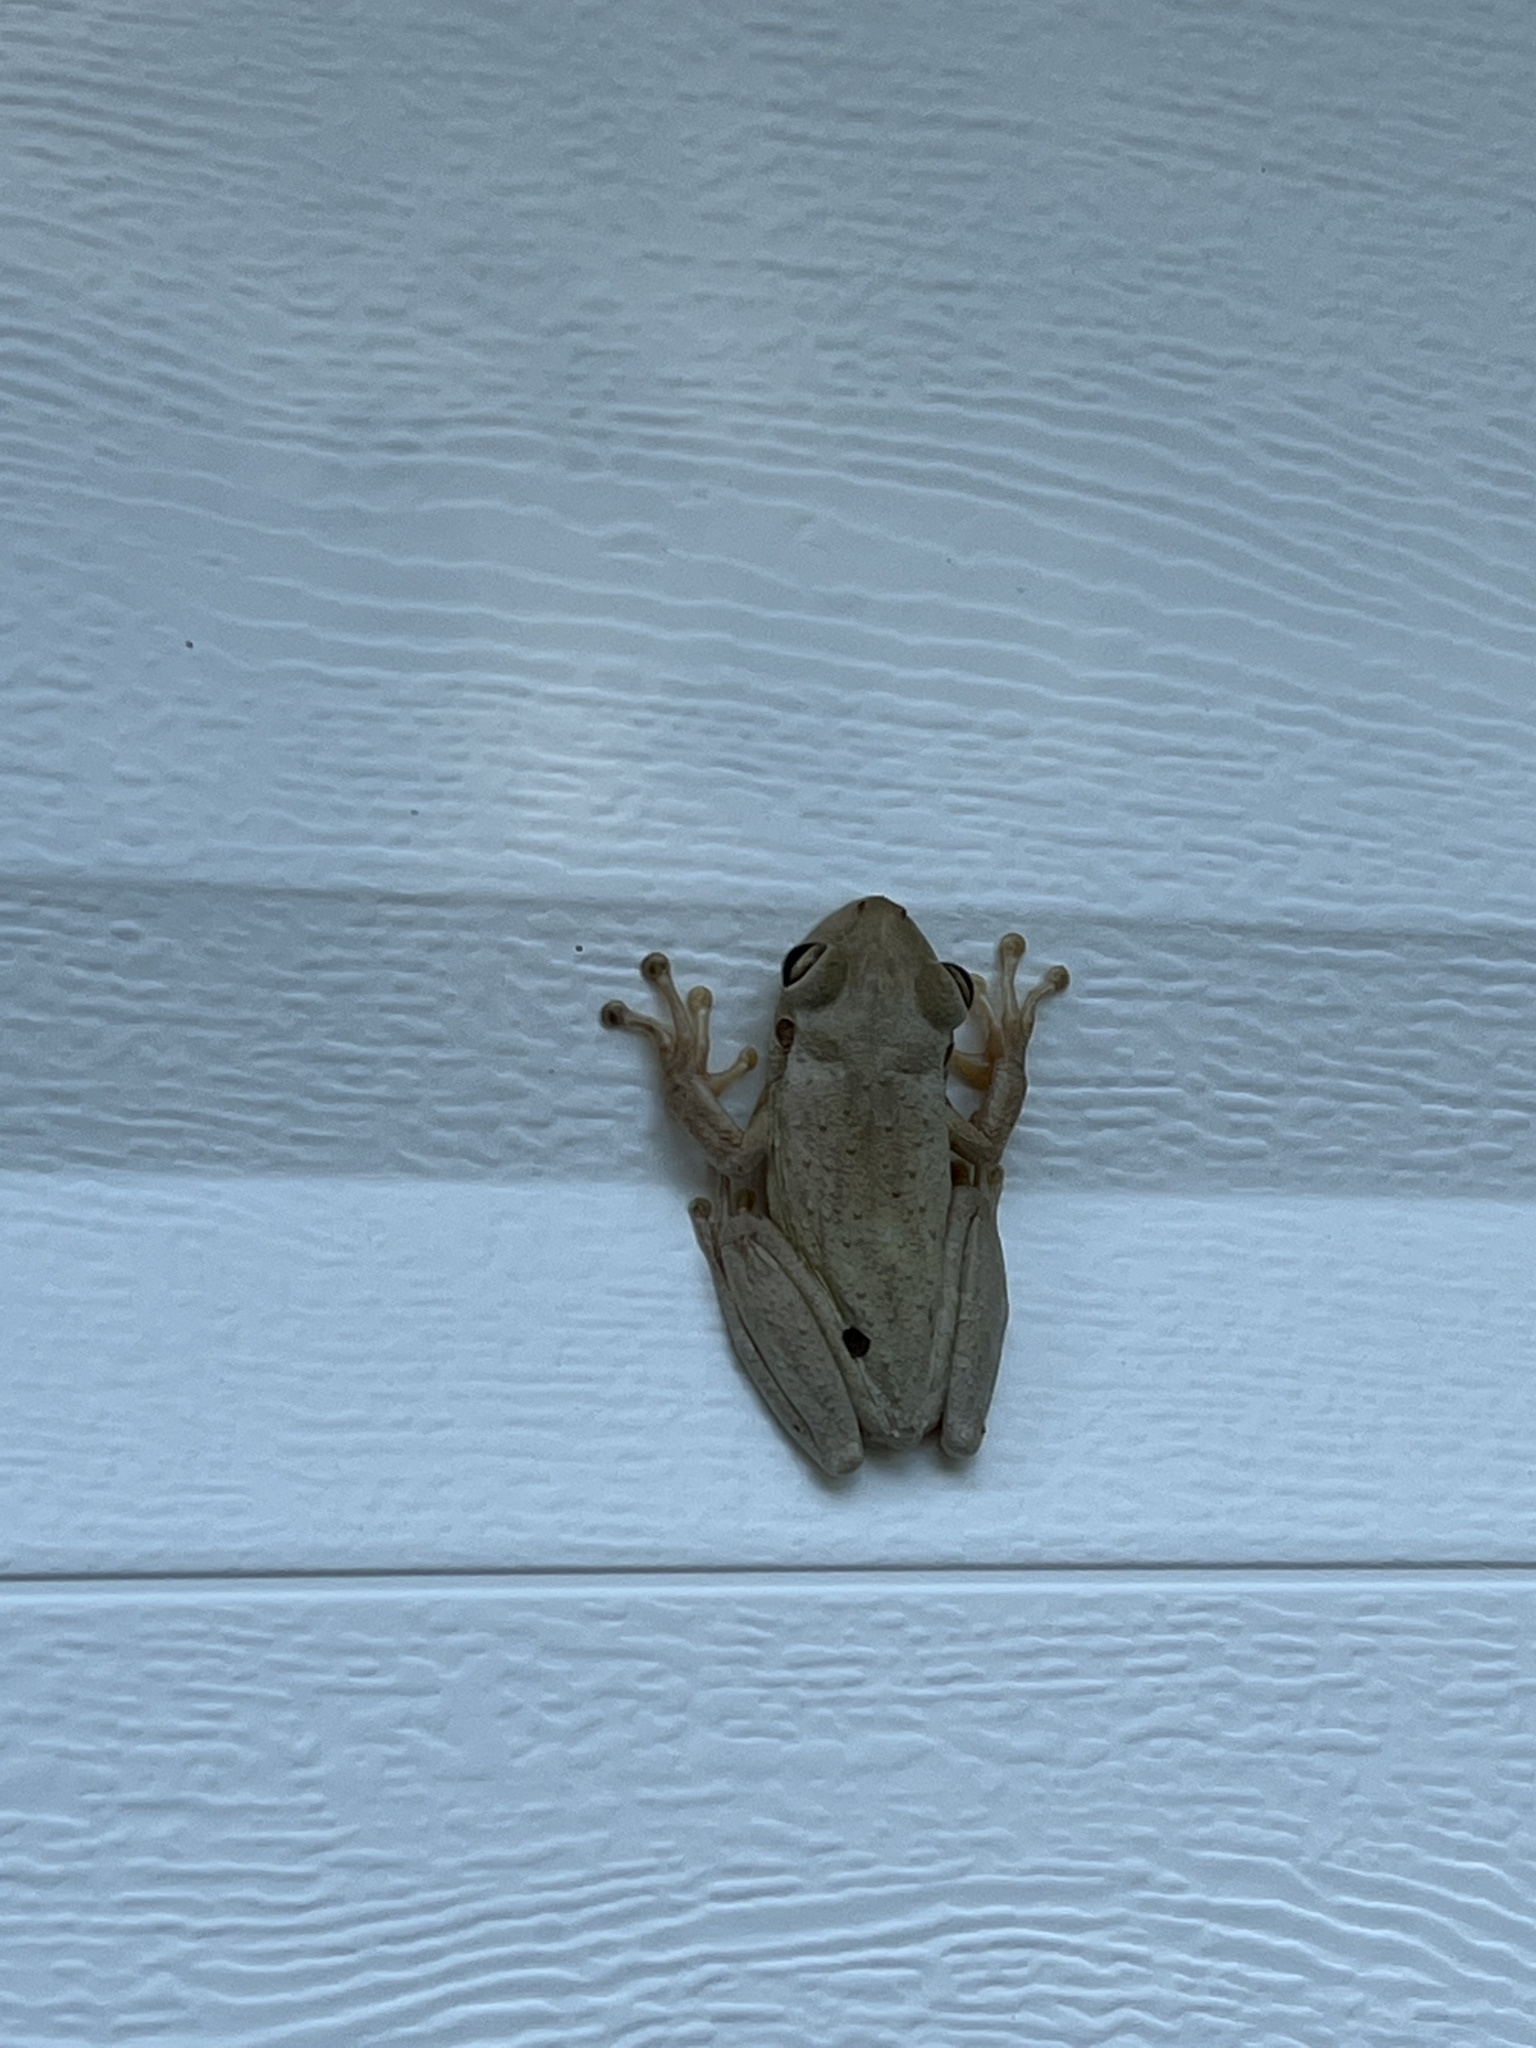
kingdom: Animalia
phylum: Chordata
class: Amphibia
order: Anura
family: Hylidae
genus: Osteopilus
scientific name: Osteopilus septentrionalis
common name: Cuban treefrog
